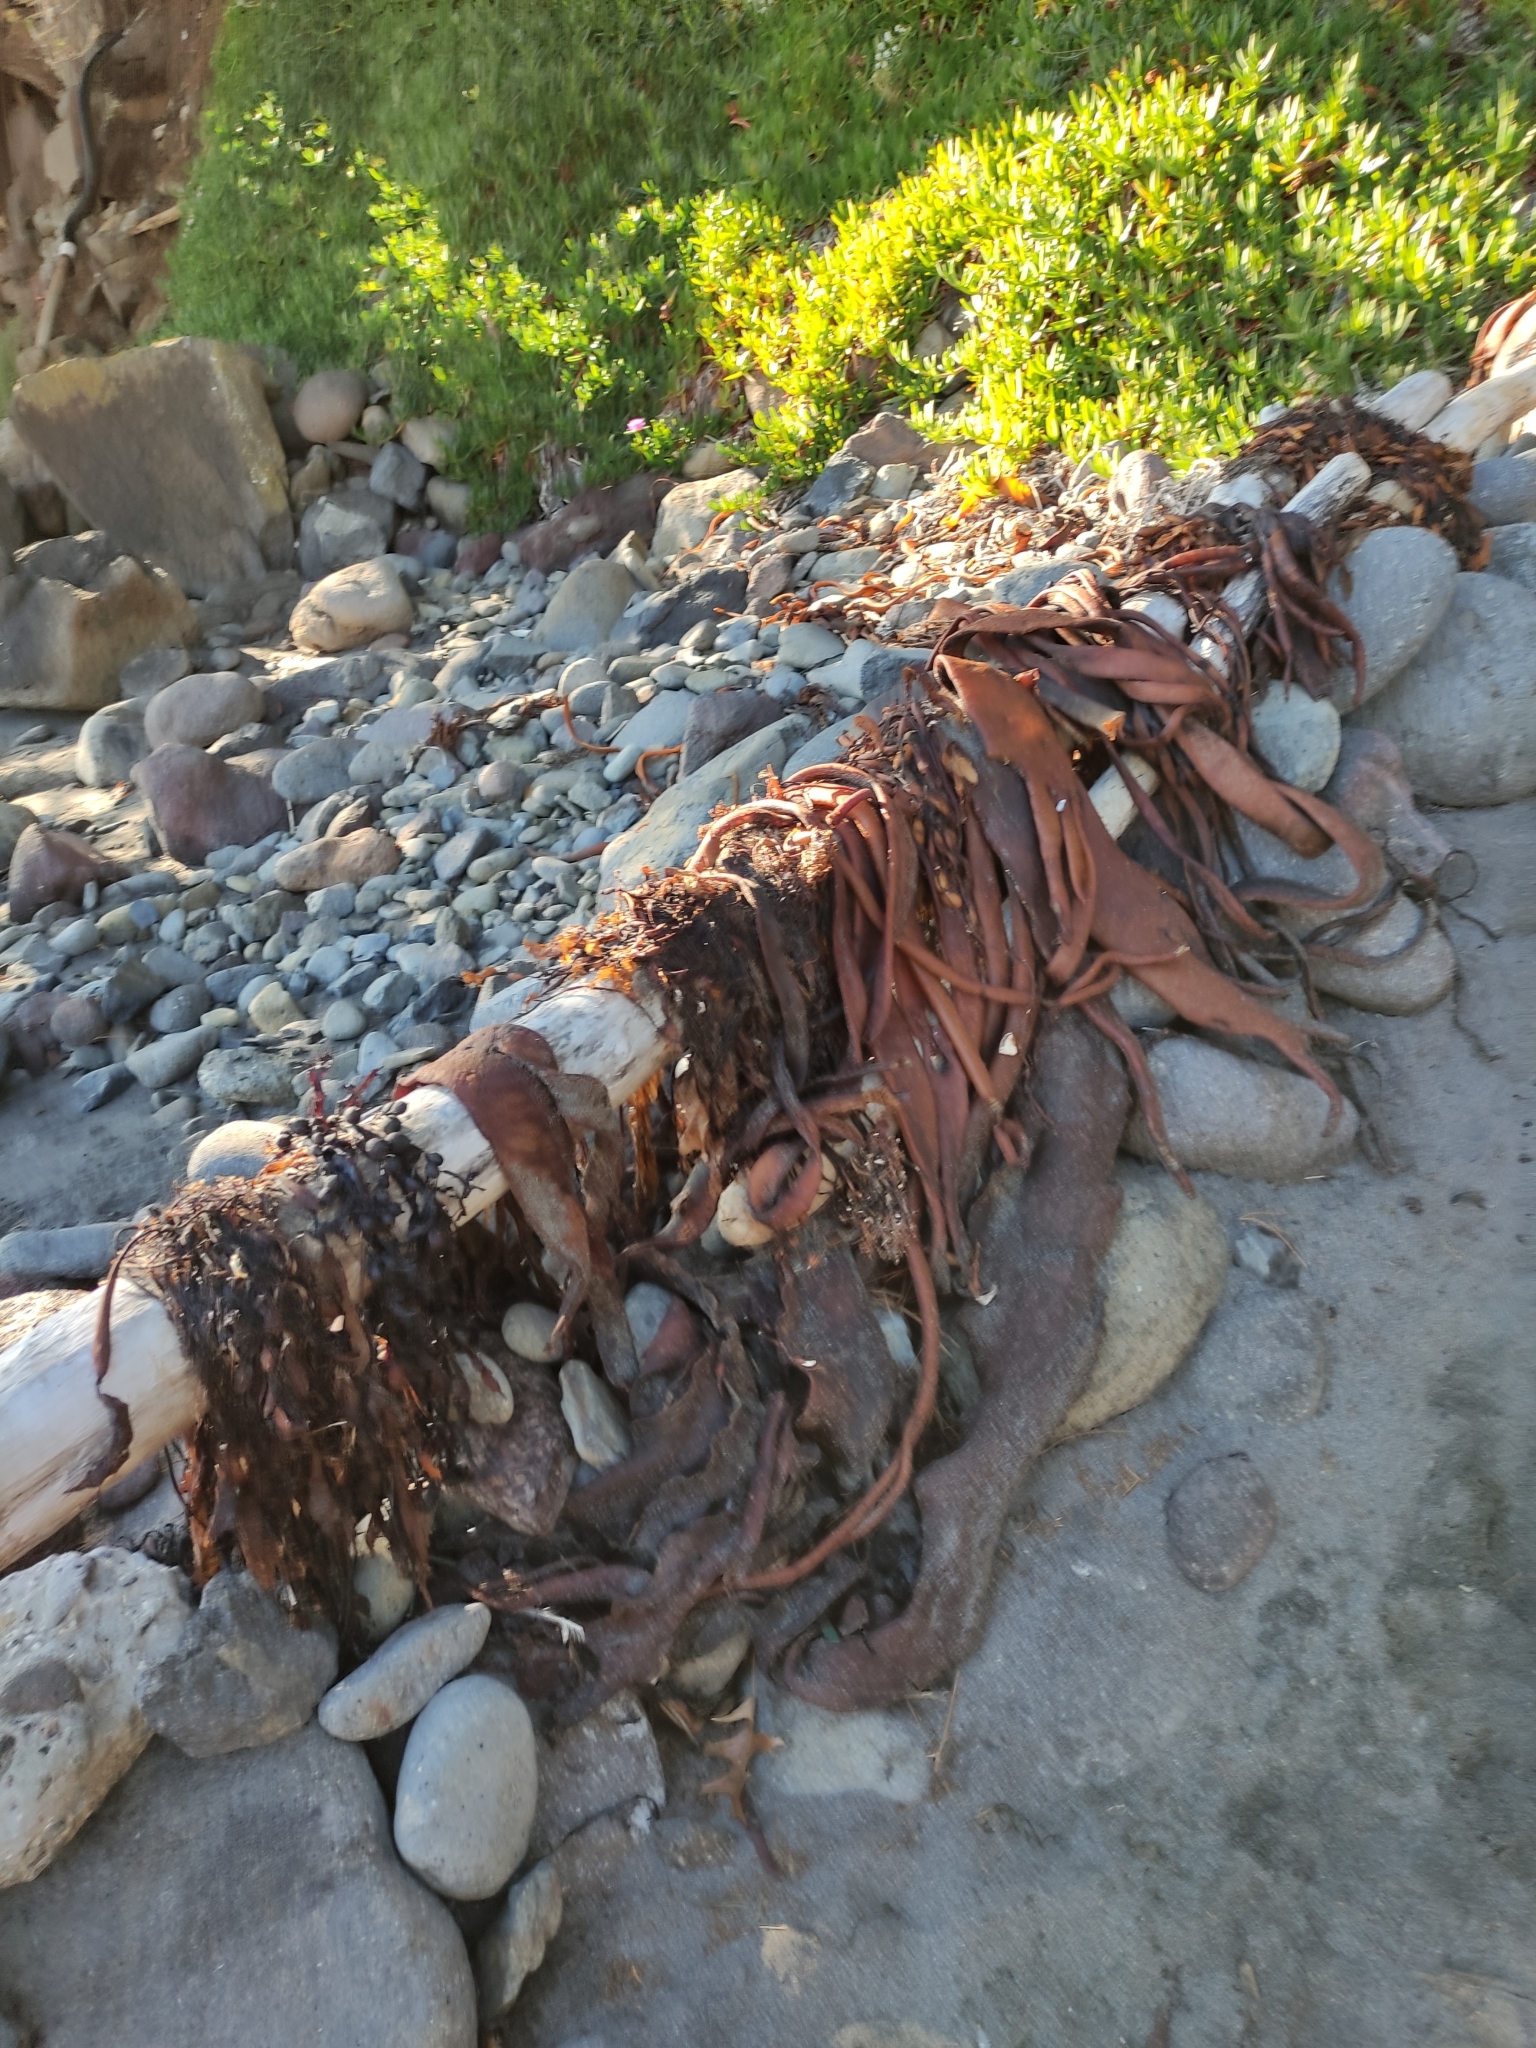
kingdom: Chromista
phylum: Ochrophyta
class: Phaeophyceae
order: Fucales
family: Durvillaeaceae
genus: Durvillaea
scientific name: Durvillaea antarctica
